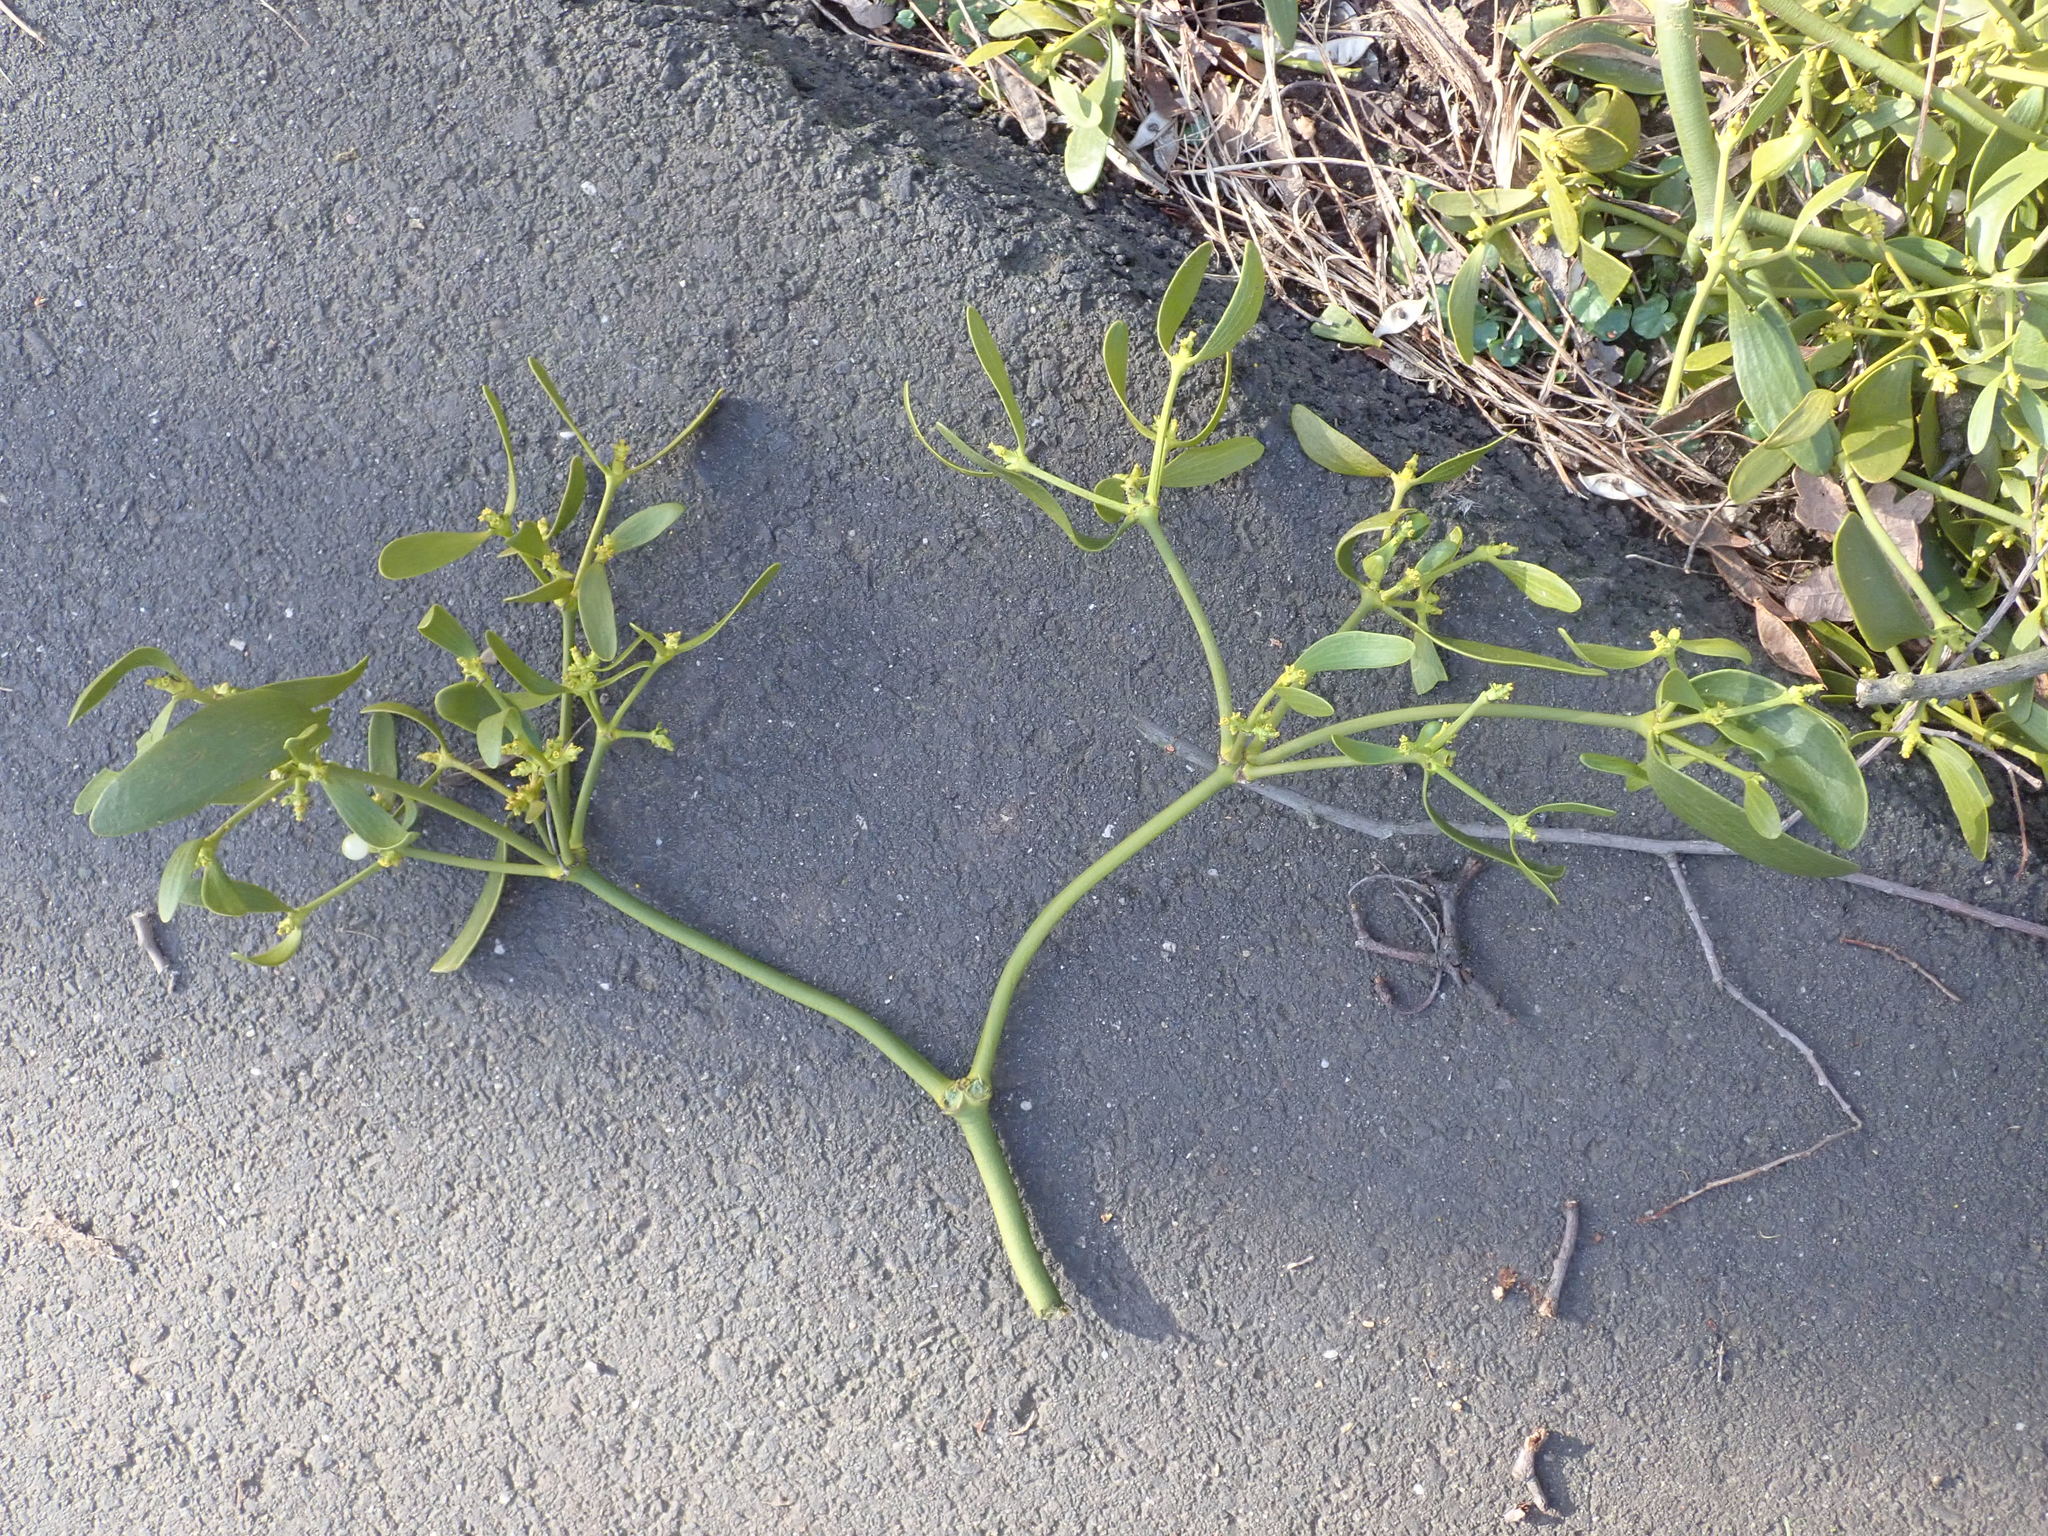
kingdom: Plantae
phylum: Tracheophyta
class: Magnoliopsida
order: Santalales
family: Viscaceae
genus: Viscum
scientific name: Viscum album
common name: Mistletoe
